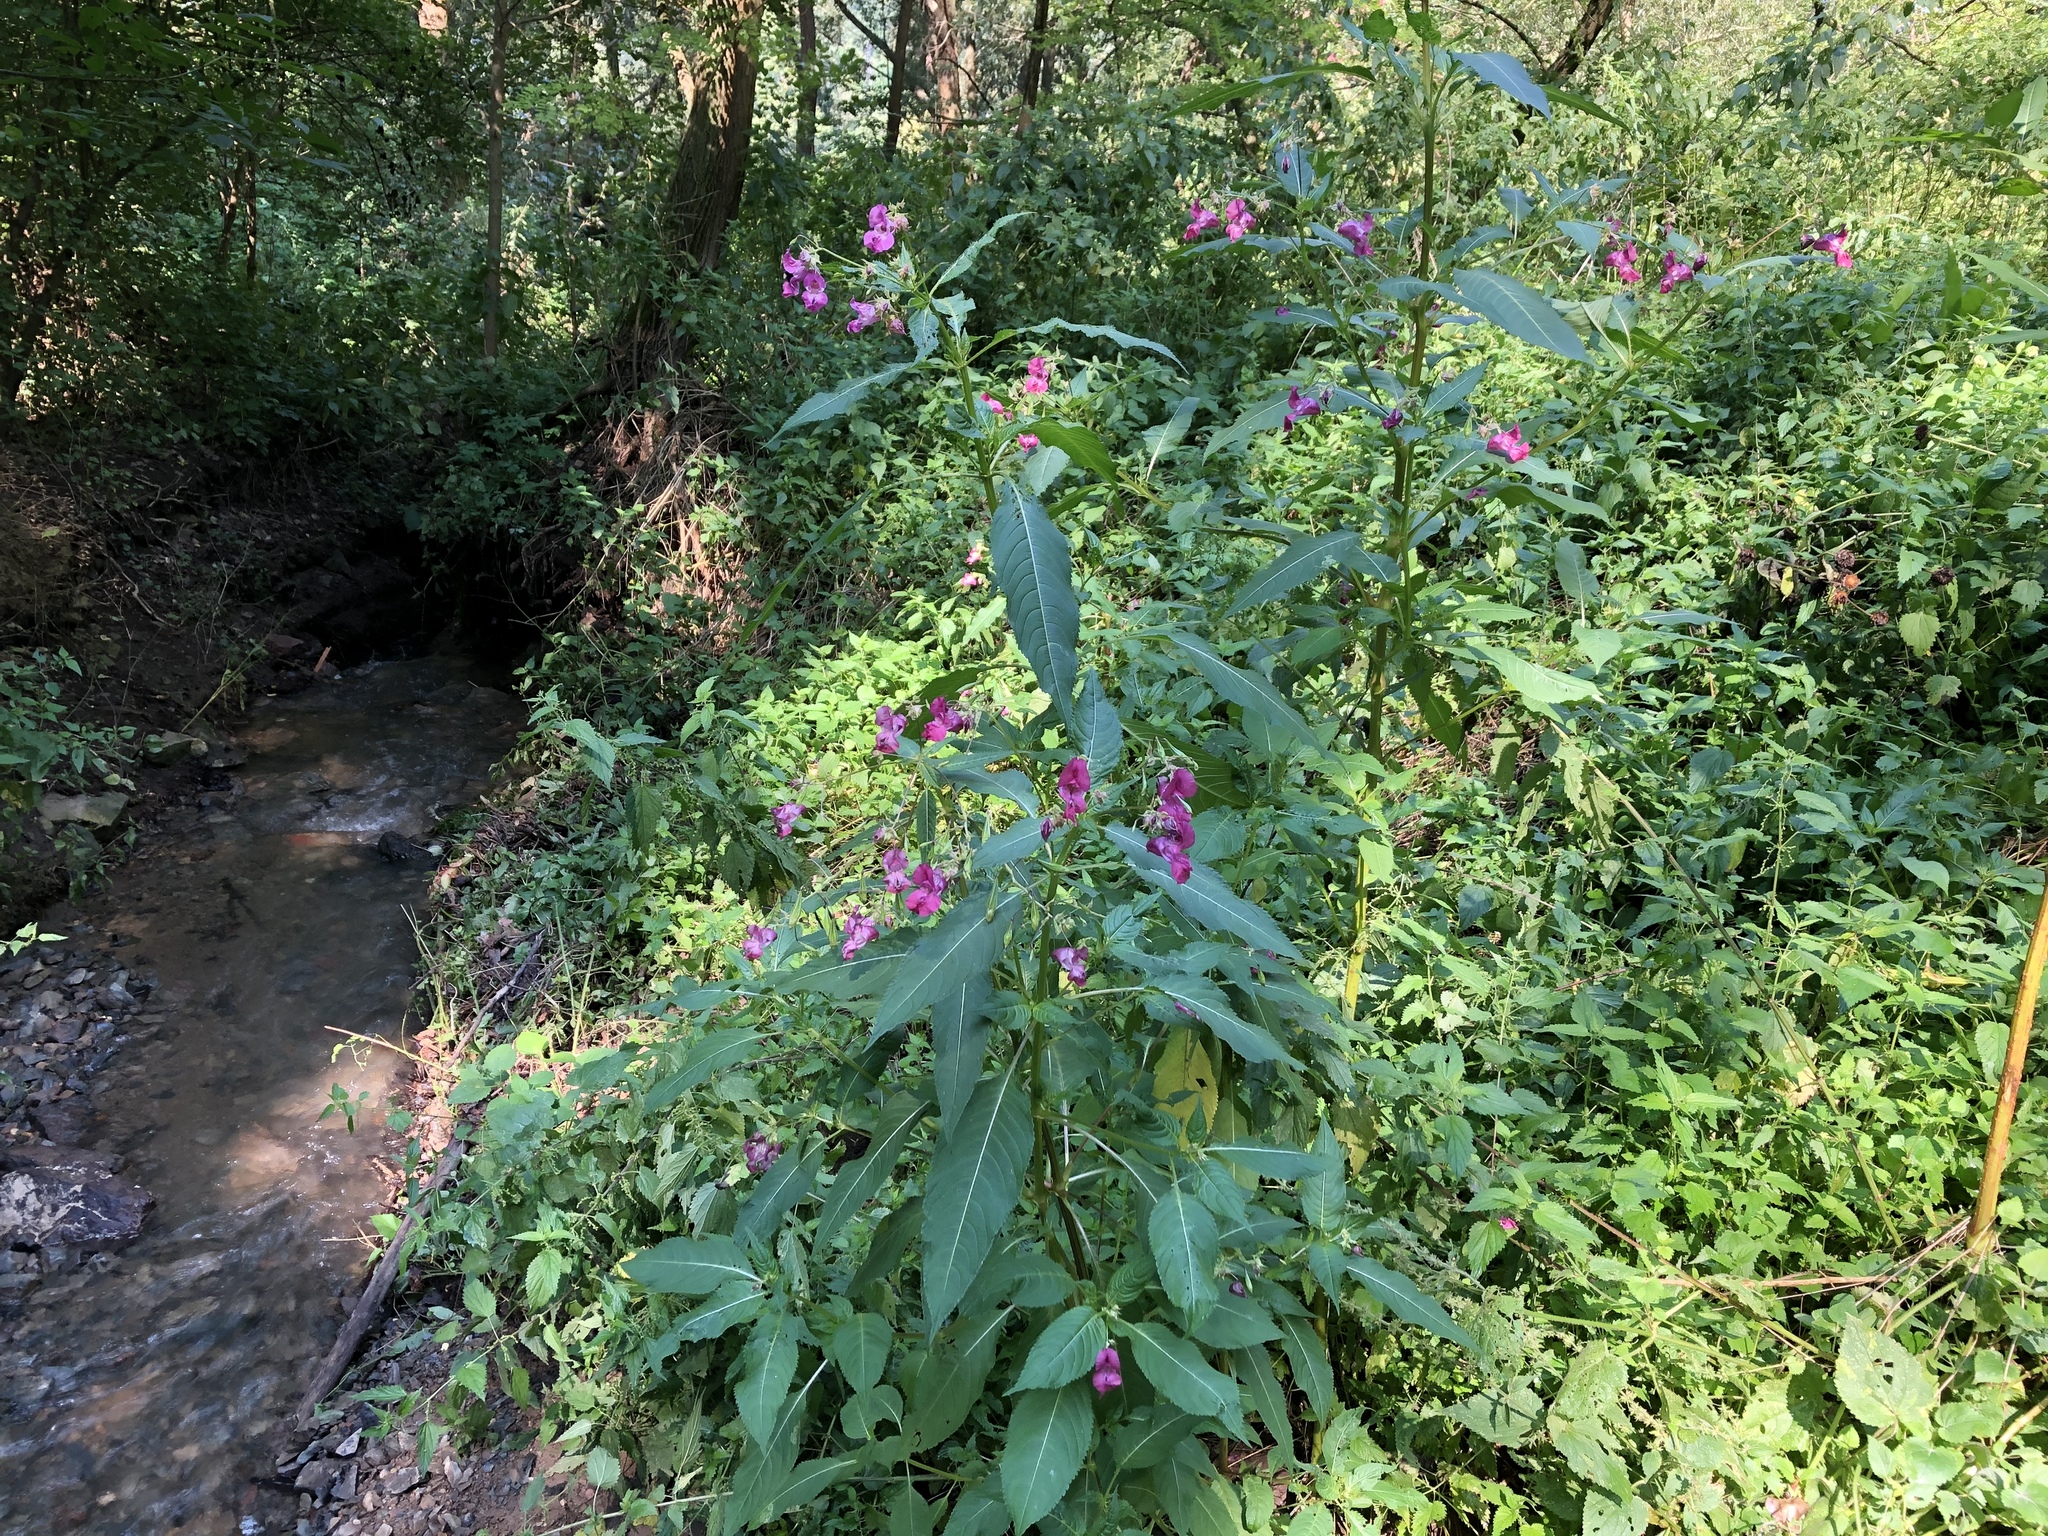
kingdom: Plantae
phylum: Tracheophyta
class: Magnoliopsida
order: Ericales
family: Balsaminaceae
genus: Impatiens
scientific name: Impatiens glandulifera
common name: Himalayan balsam
